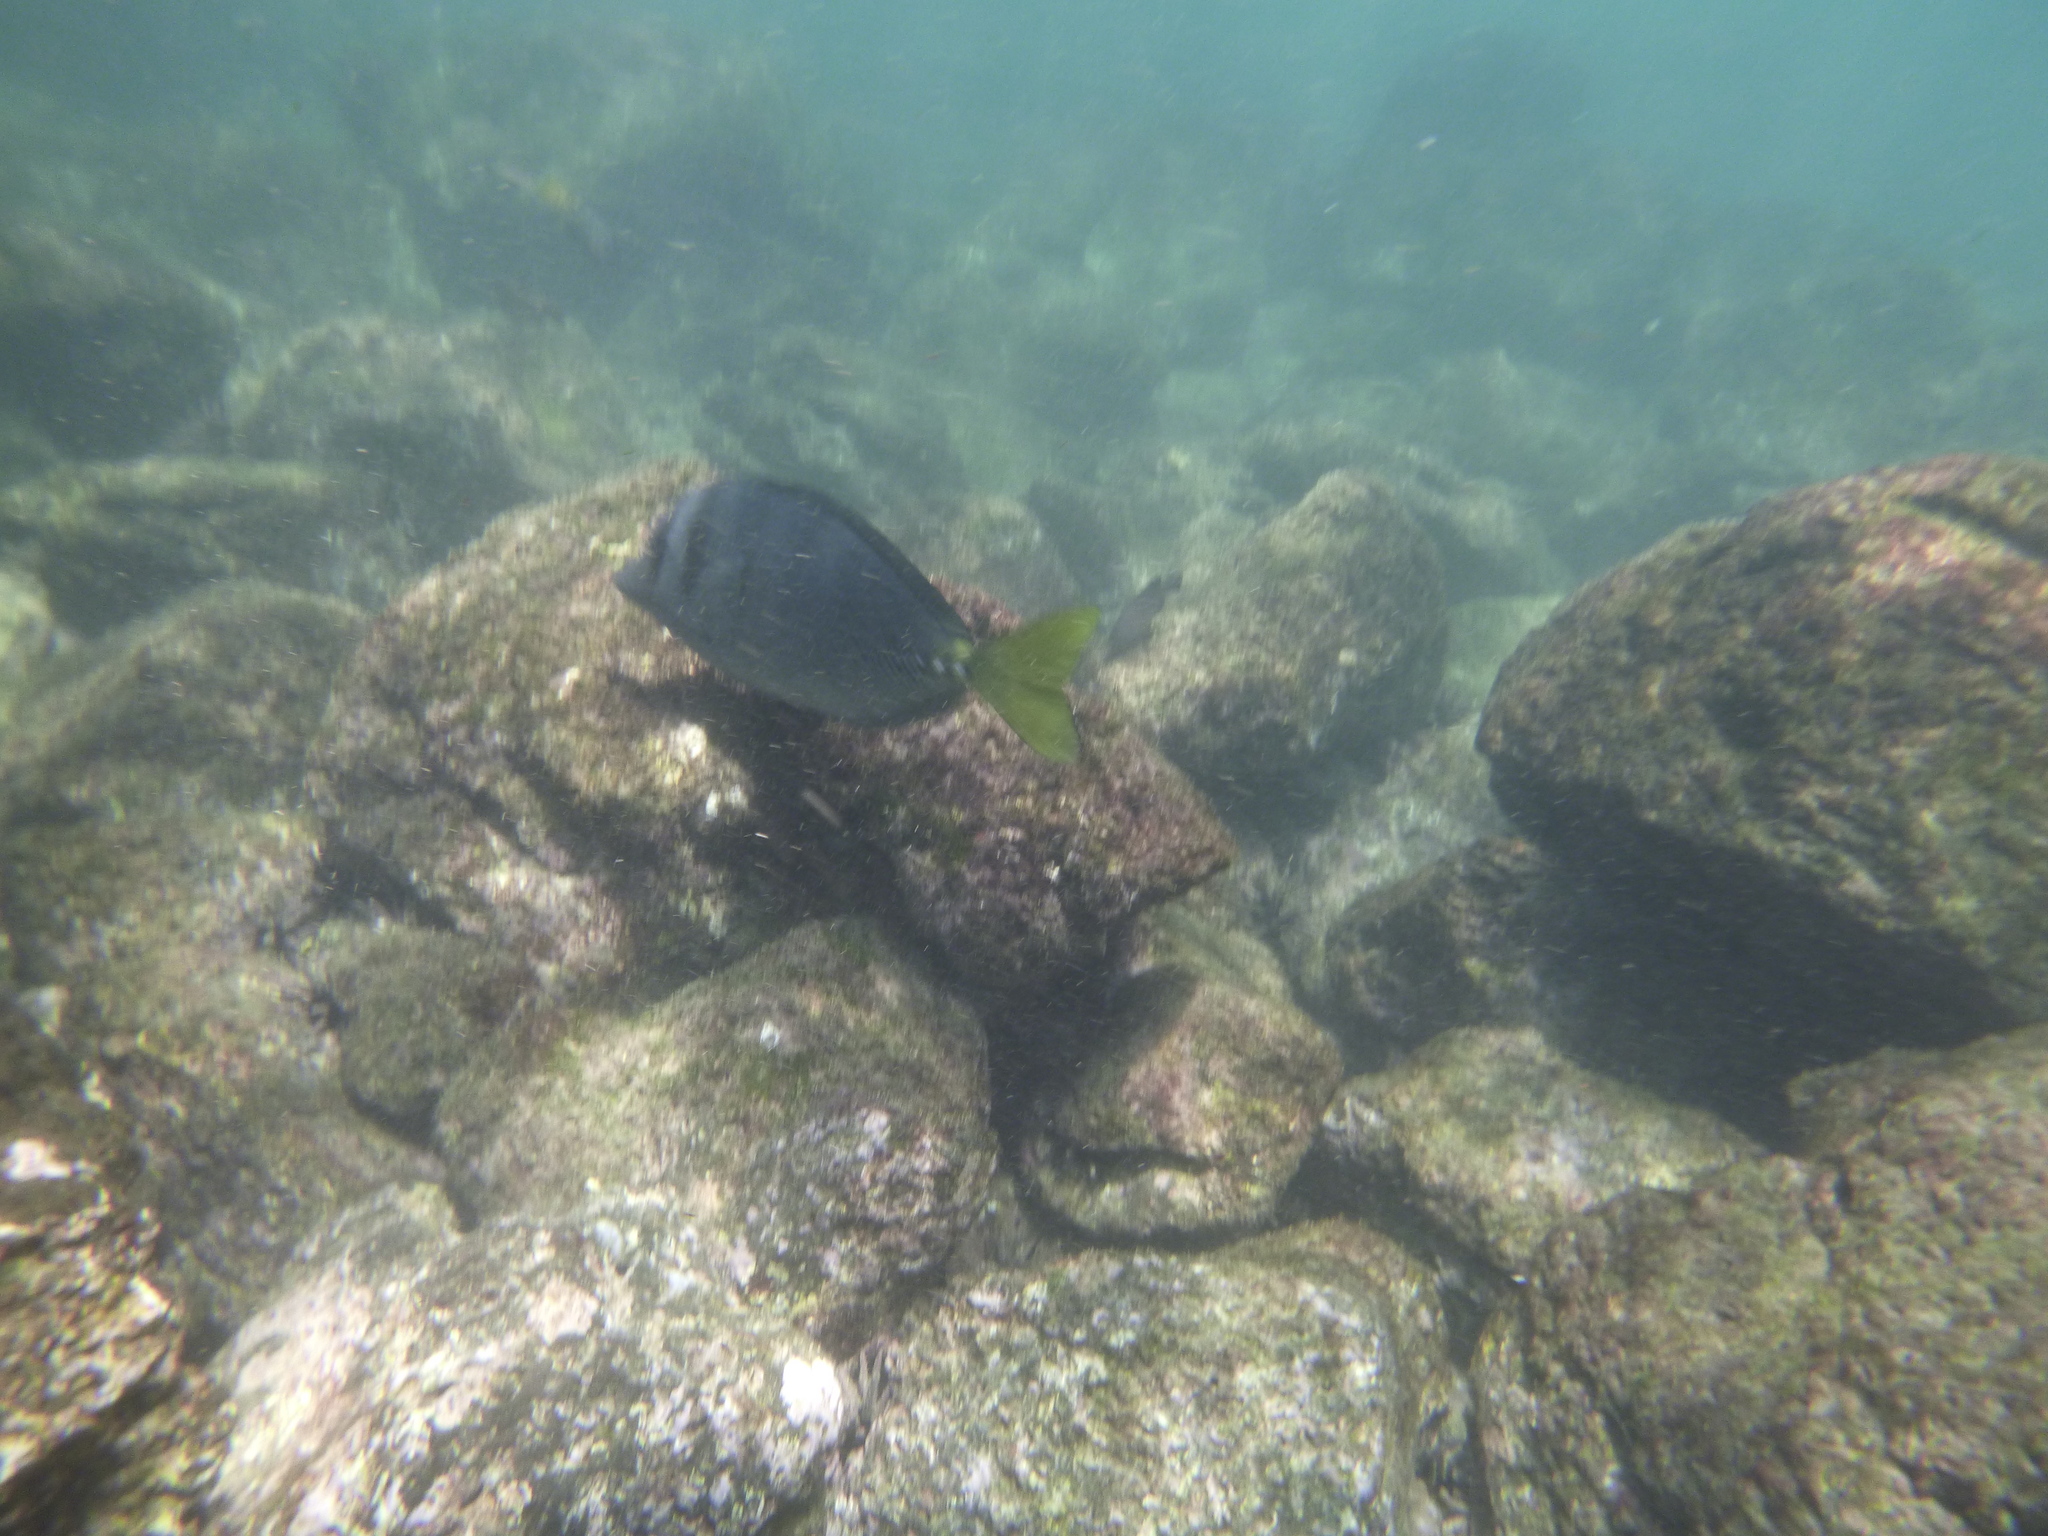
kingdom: Animalia
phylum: Chordata
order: Perciformes
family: Acanthuridae
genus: Prionurus
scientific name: Prionurus laticlavius
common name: Razor surgeonfish
